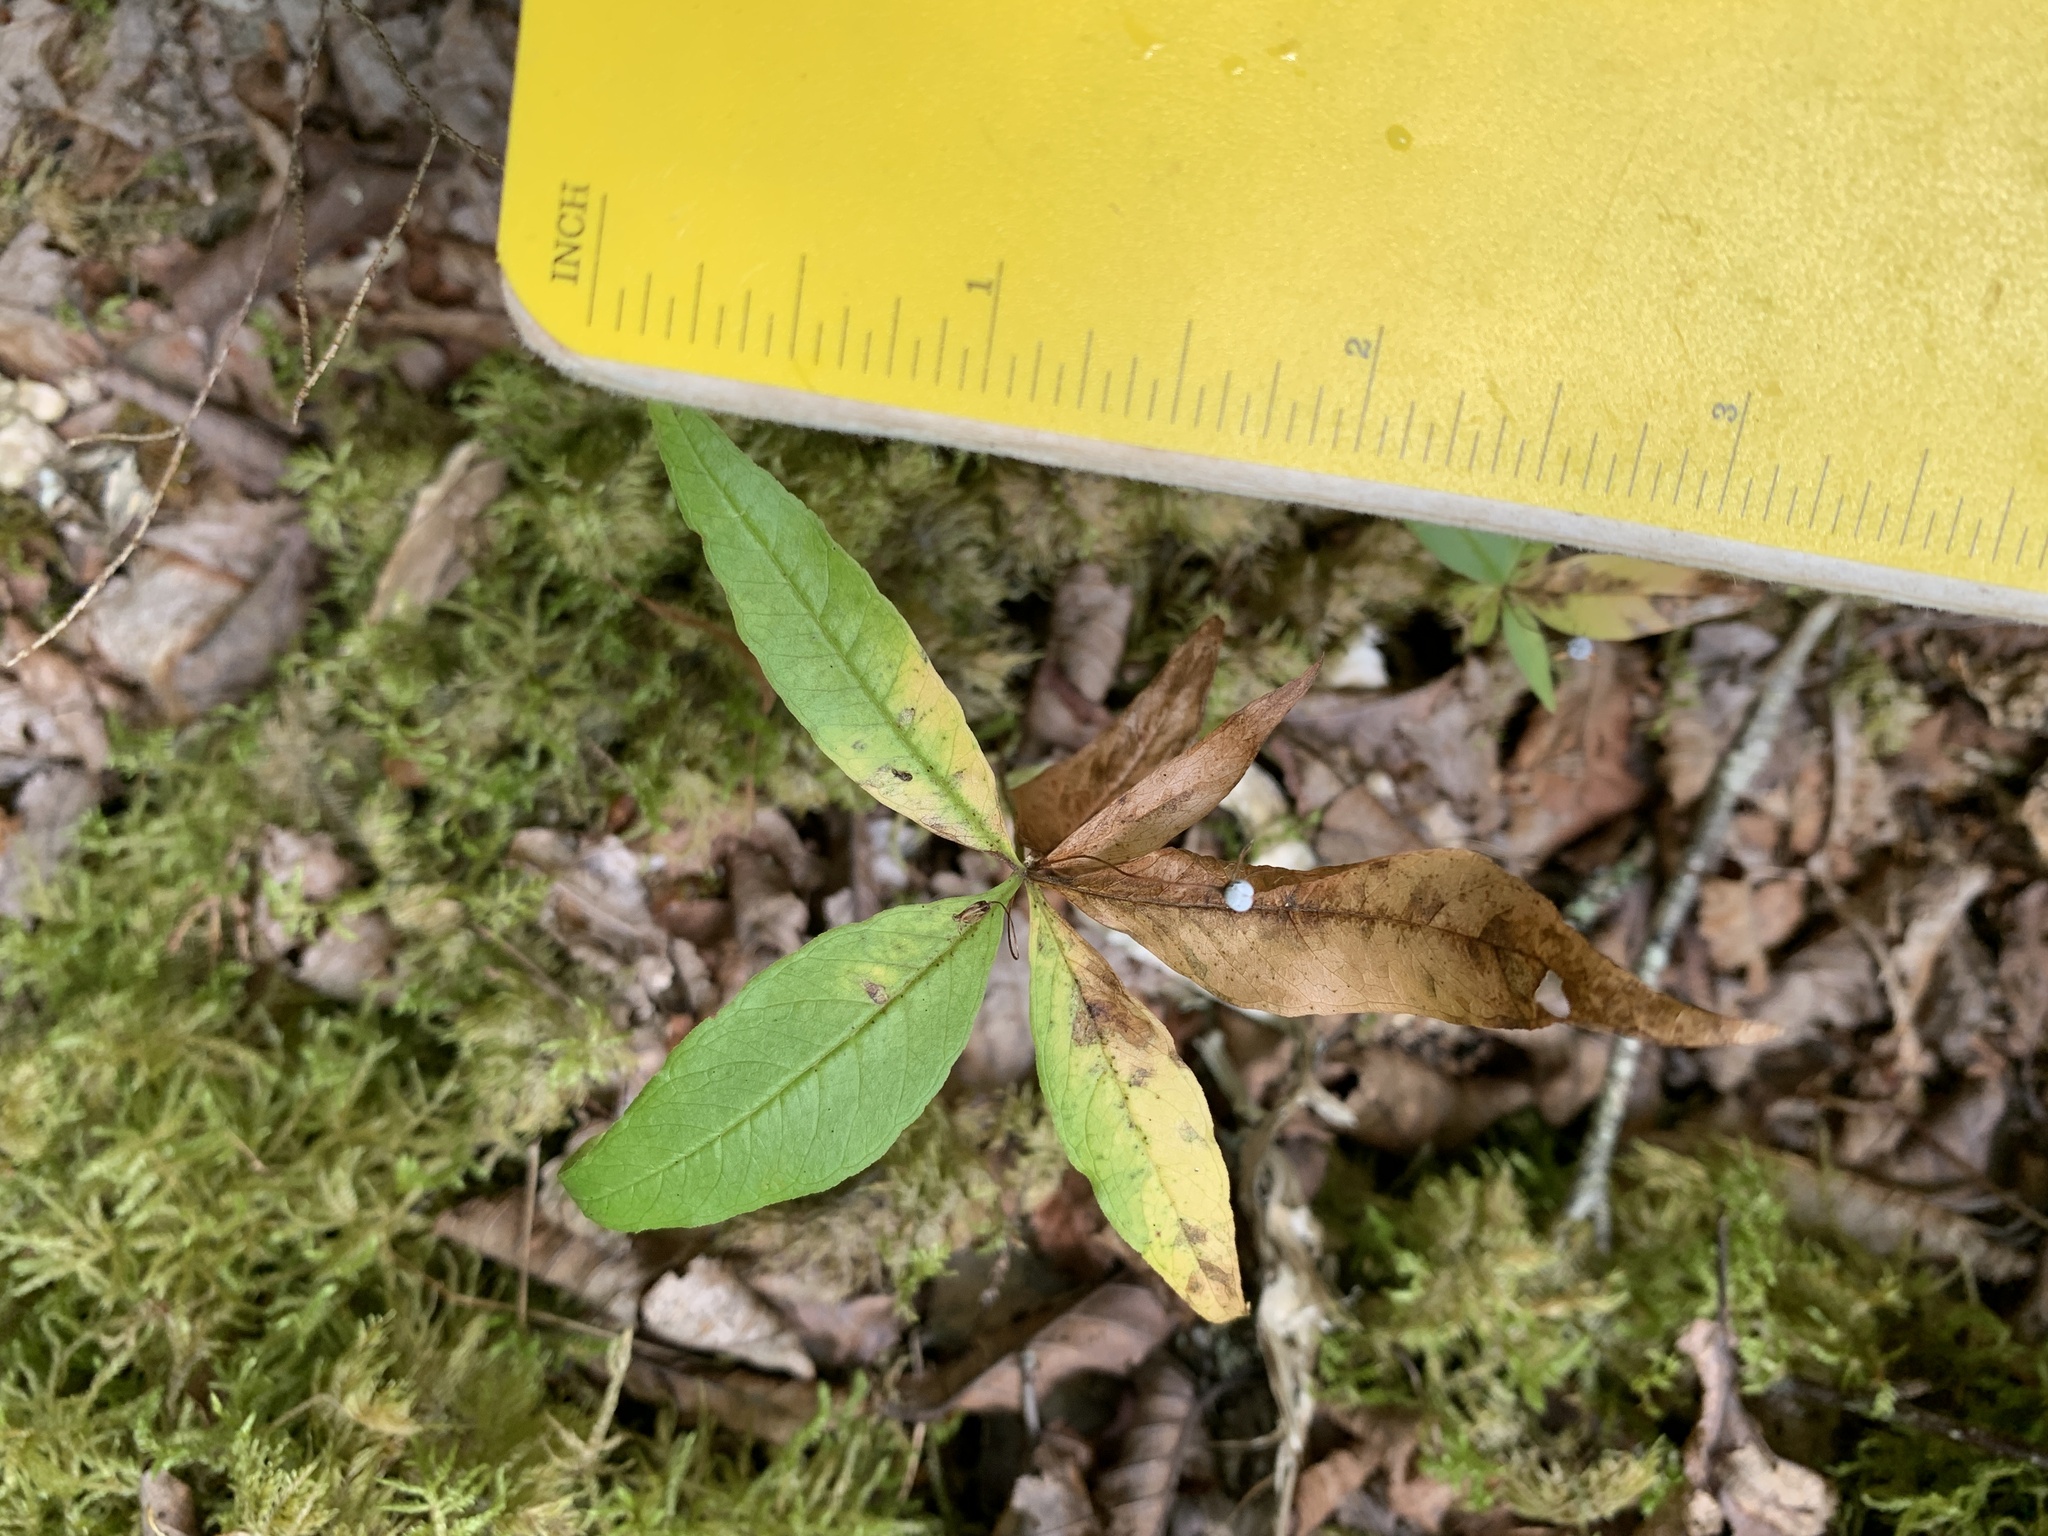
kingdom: Plantae
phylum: Tracheophyta
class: Magnoliopsida
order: Ericales
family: Primulaceae
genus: Lysimachia
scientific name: Lysimachia borealis
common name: American starflower
